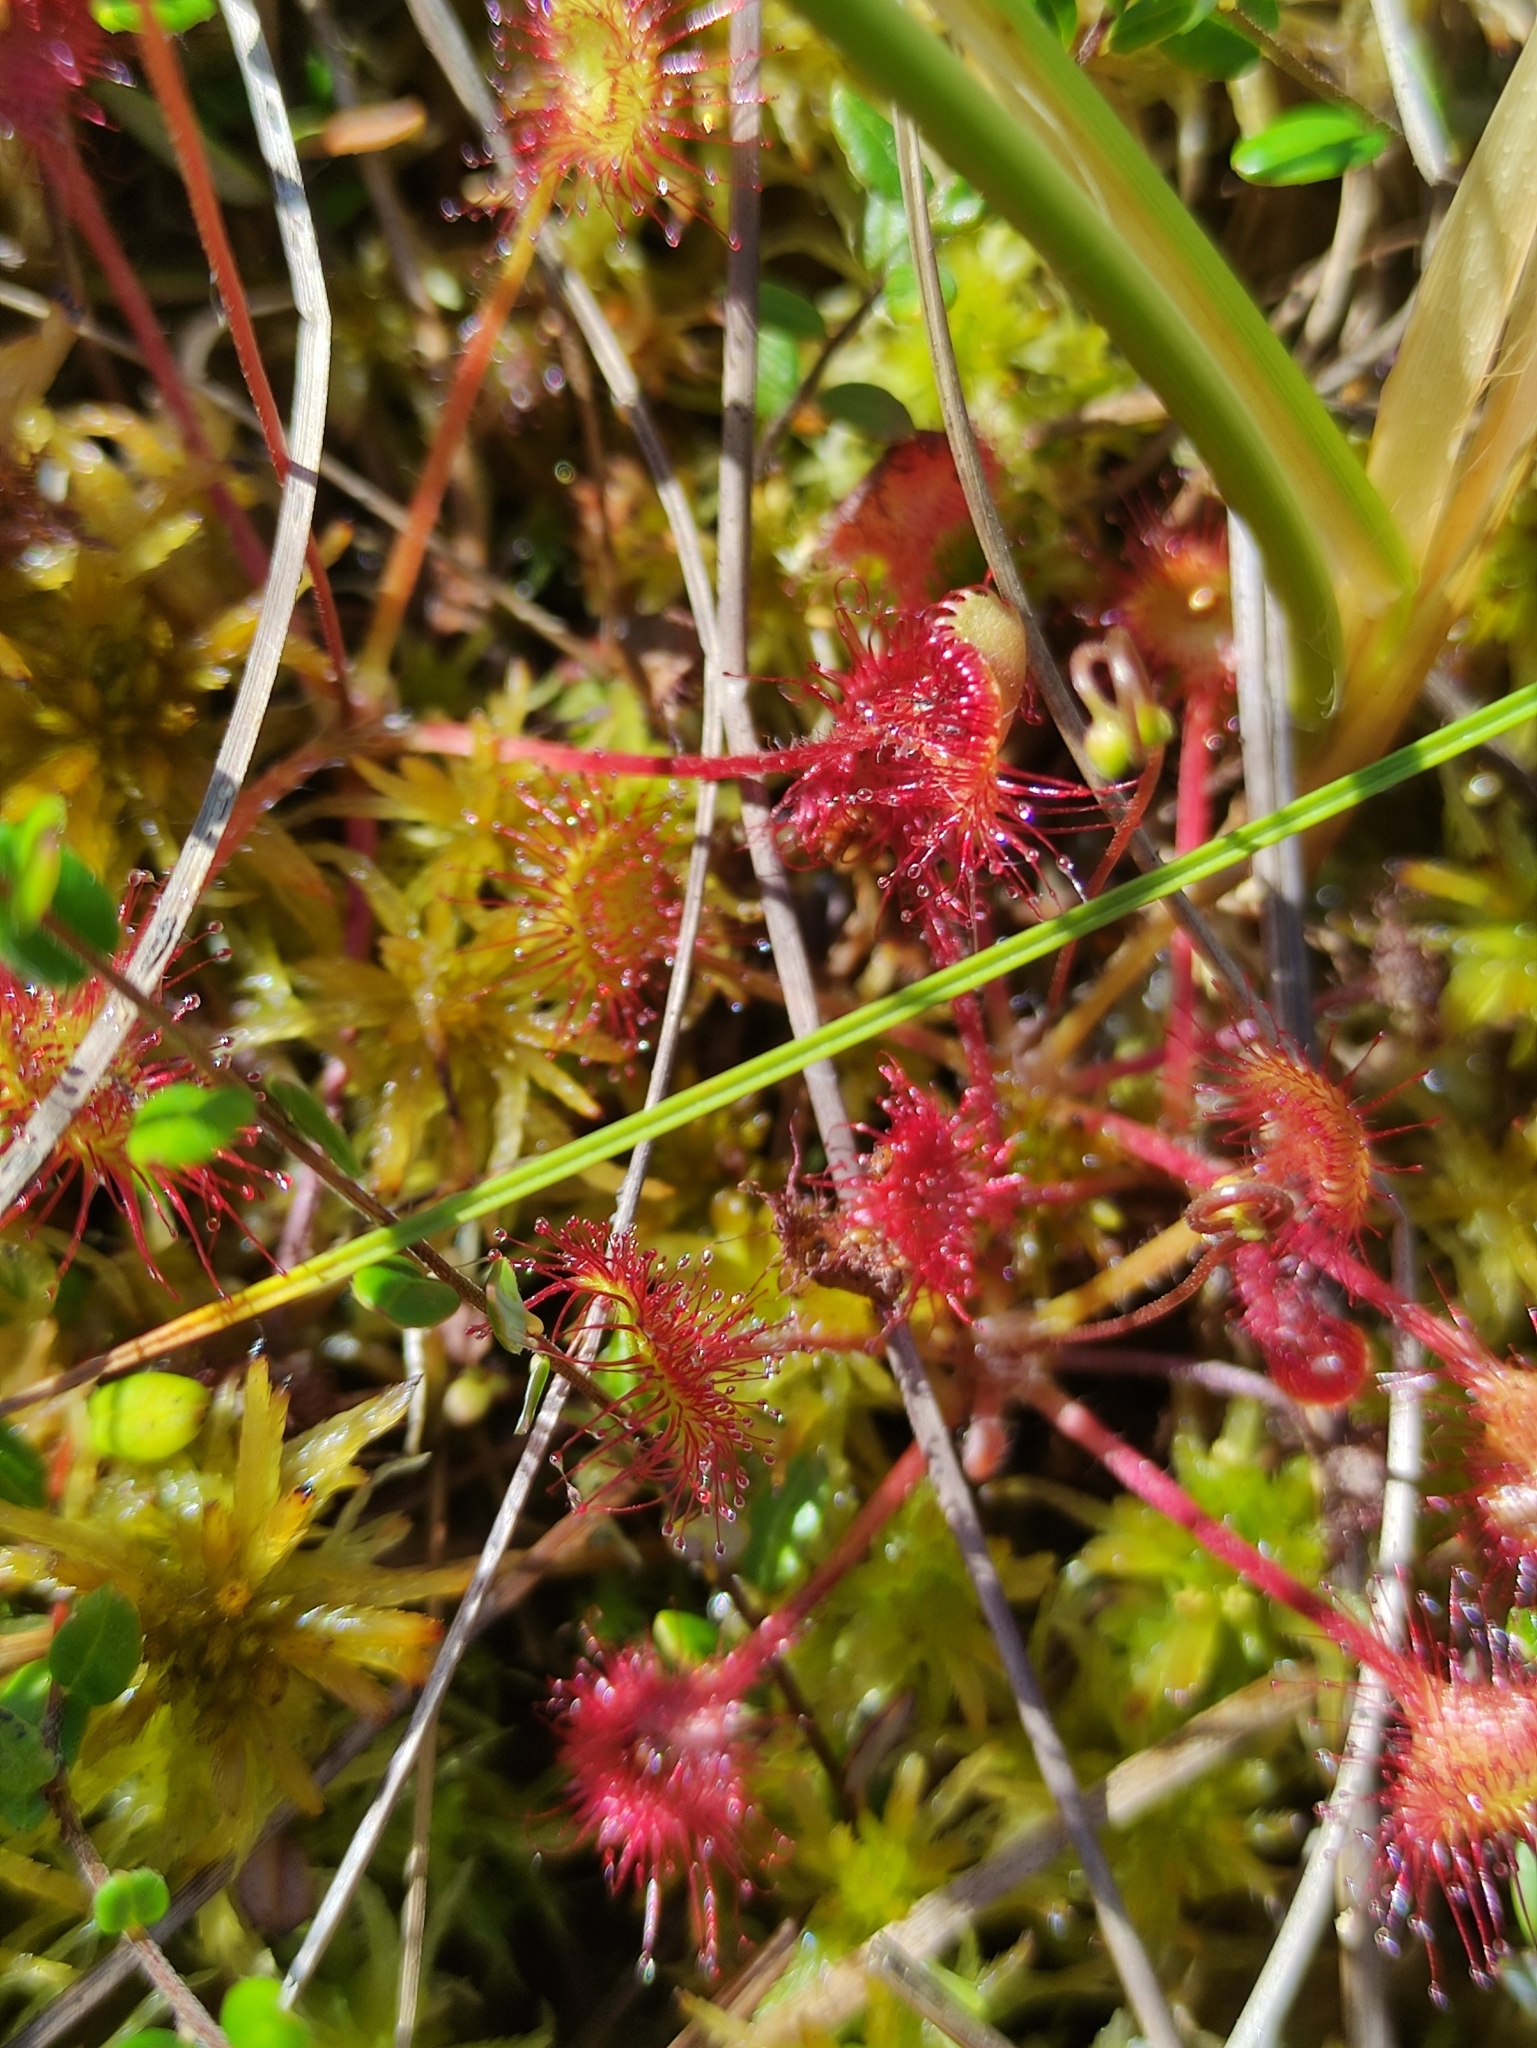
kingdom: Plantae
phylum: Tracheophyta
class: Magnoliopsida
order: Caryophyllales
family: Droseraceae
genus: Drosera
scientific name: Drosera rotundifolia
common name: Round-leaved sundew
